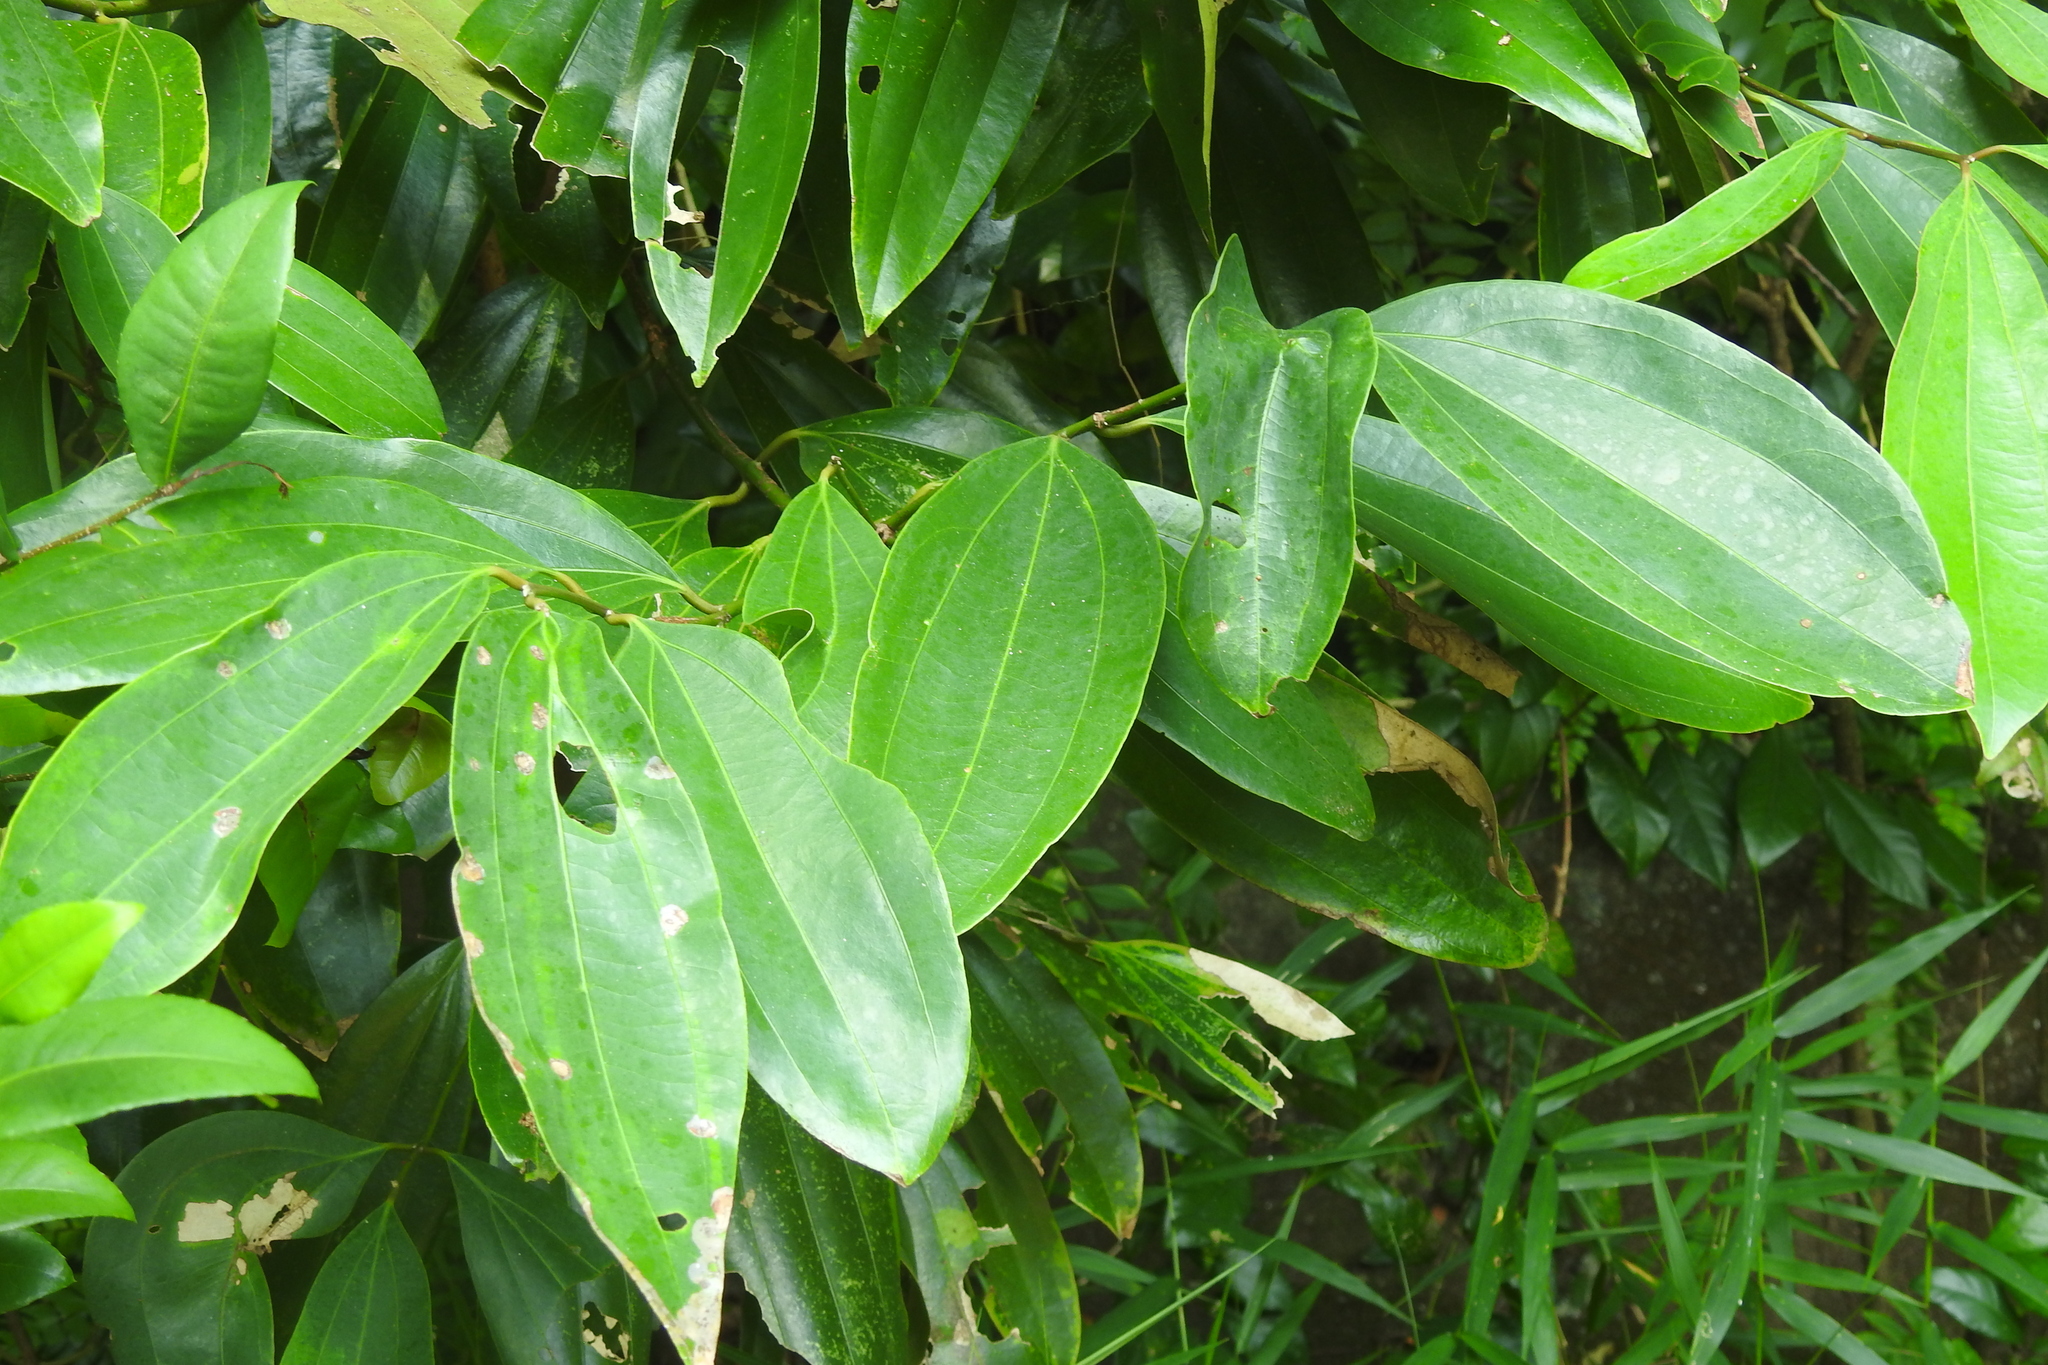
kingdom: Plantae
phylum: Tracheophyta
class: Magnoliopsida
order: Laurales
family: Lauraceae
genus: Cinnamomum
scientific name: Cinnamomum iners
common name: Wild cinnamon
